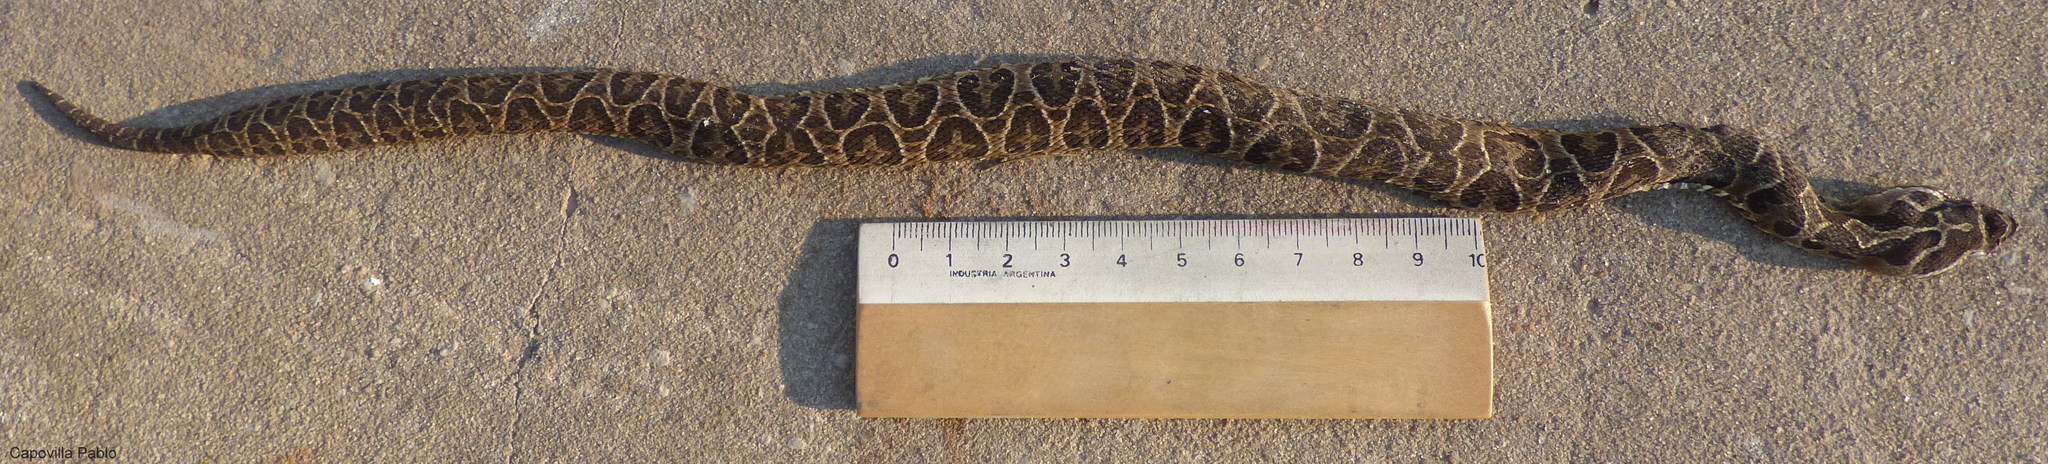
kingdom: Animalia
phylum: Chordata
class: Squamata
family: Viperidae
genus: Bothrops
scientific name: Bothrops alternatus
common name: Urutu
